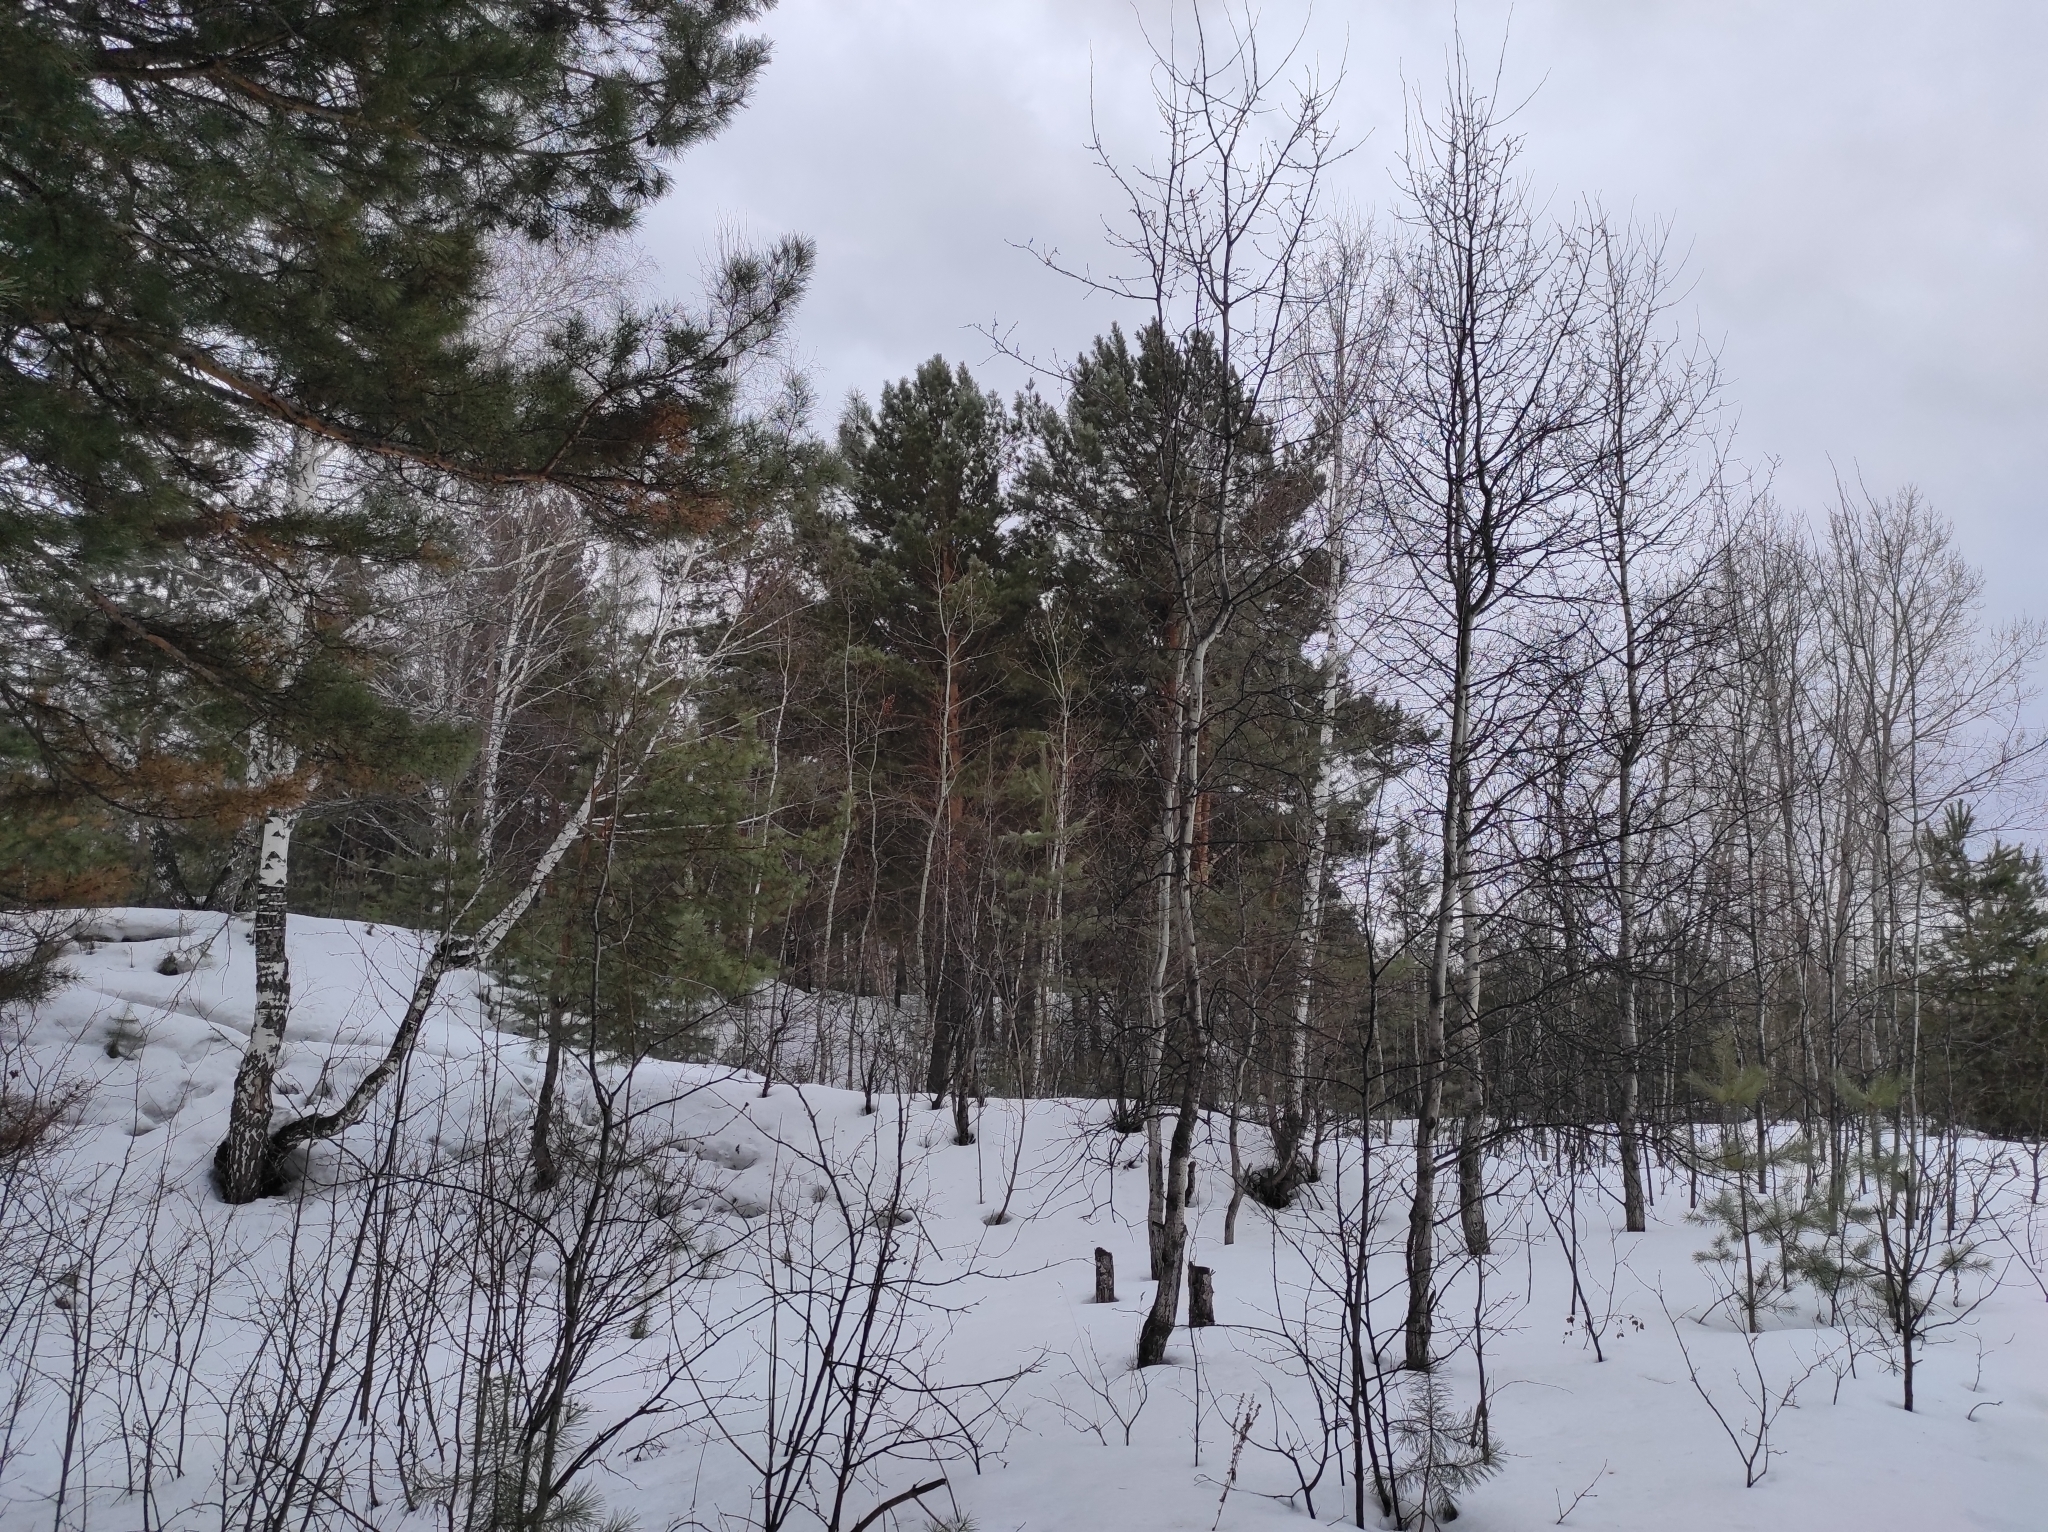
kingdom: Plantae
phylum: Tracheophyta
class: Magnoliopsida
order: Malpighiales
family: Salicaceae
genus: Populus
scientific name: Populus tremula
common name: European aspen
